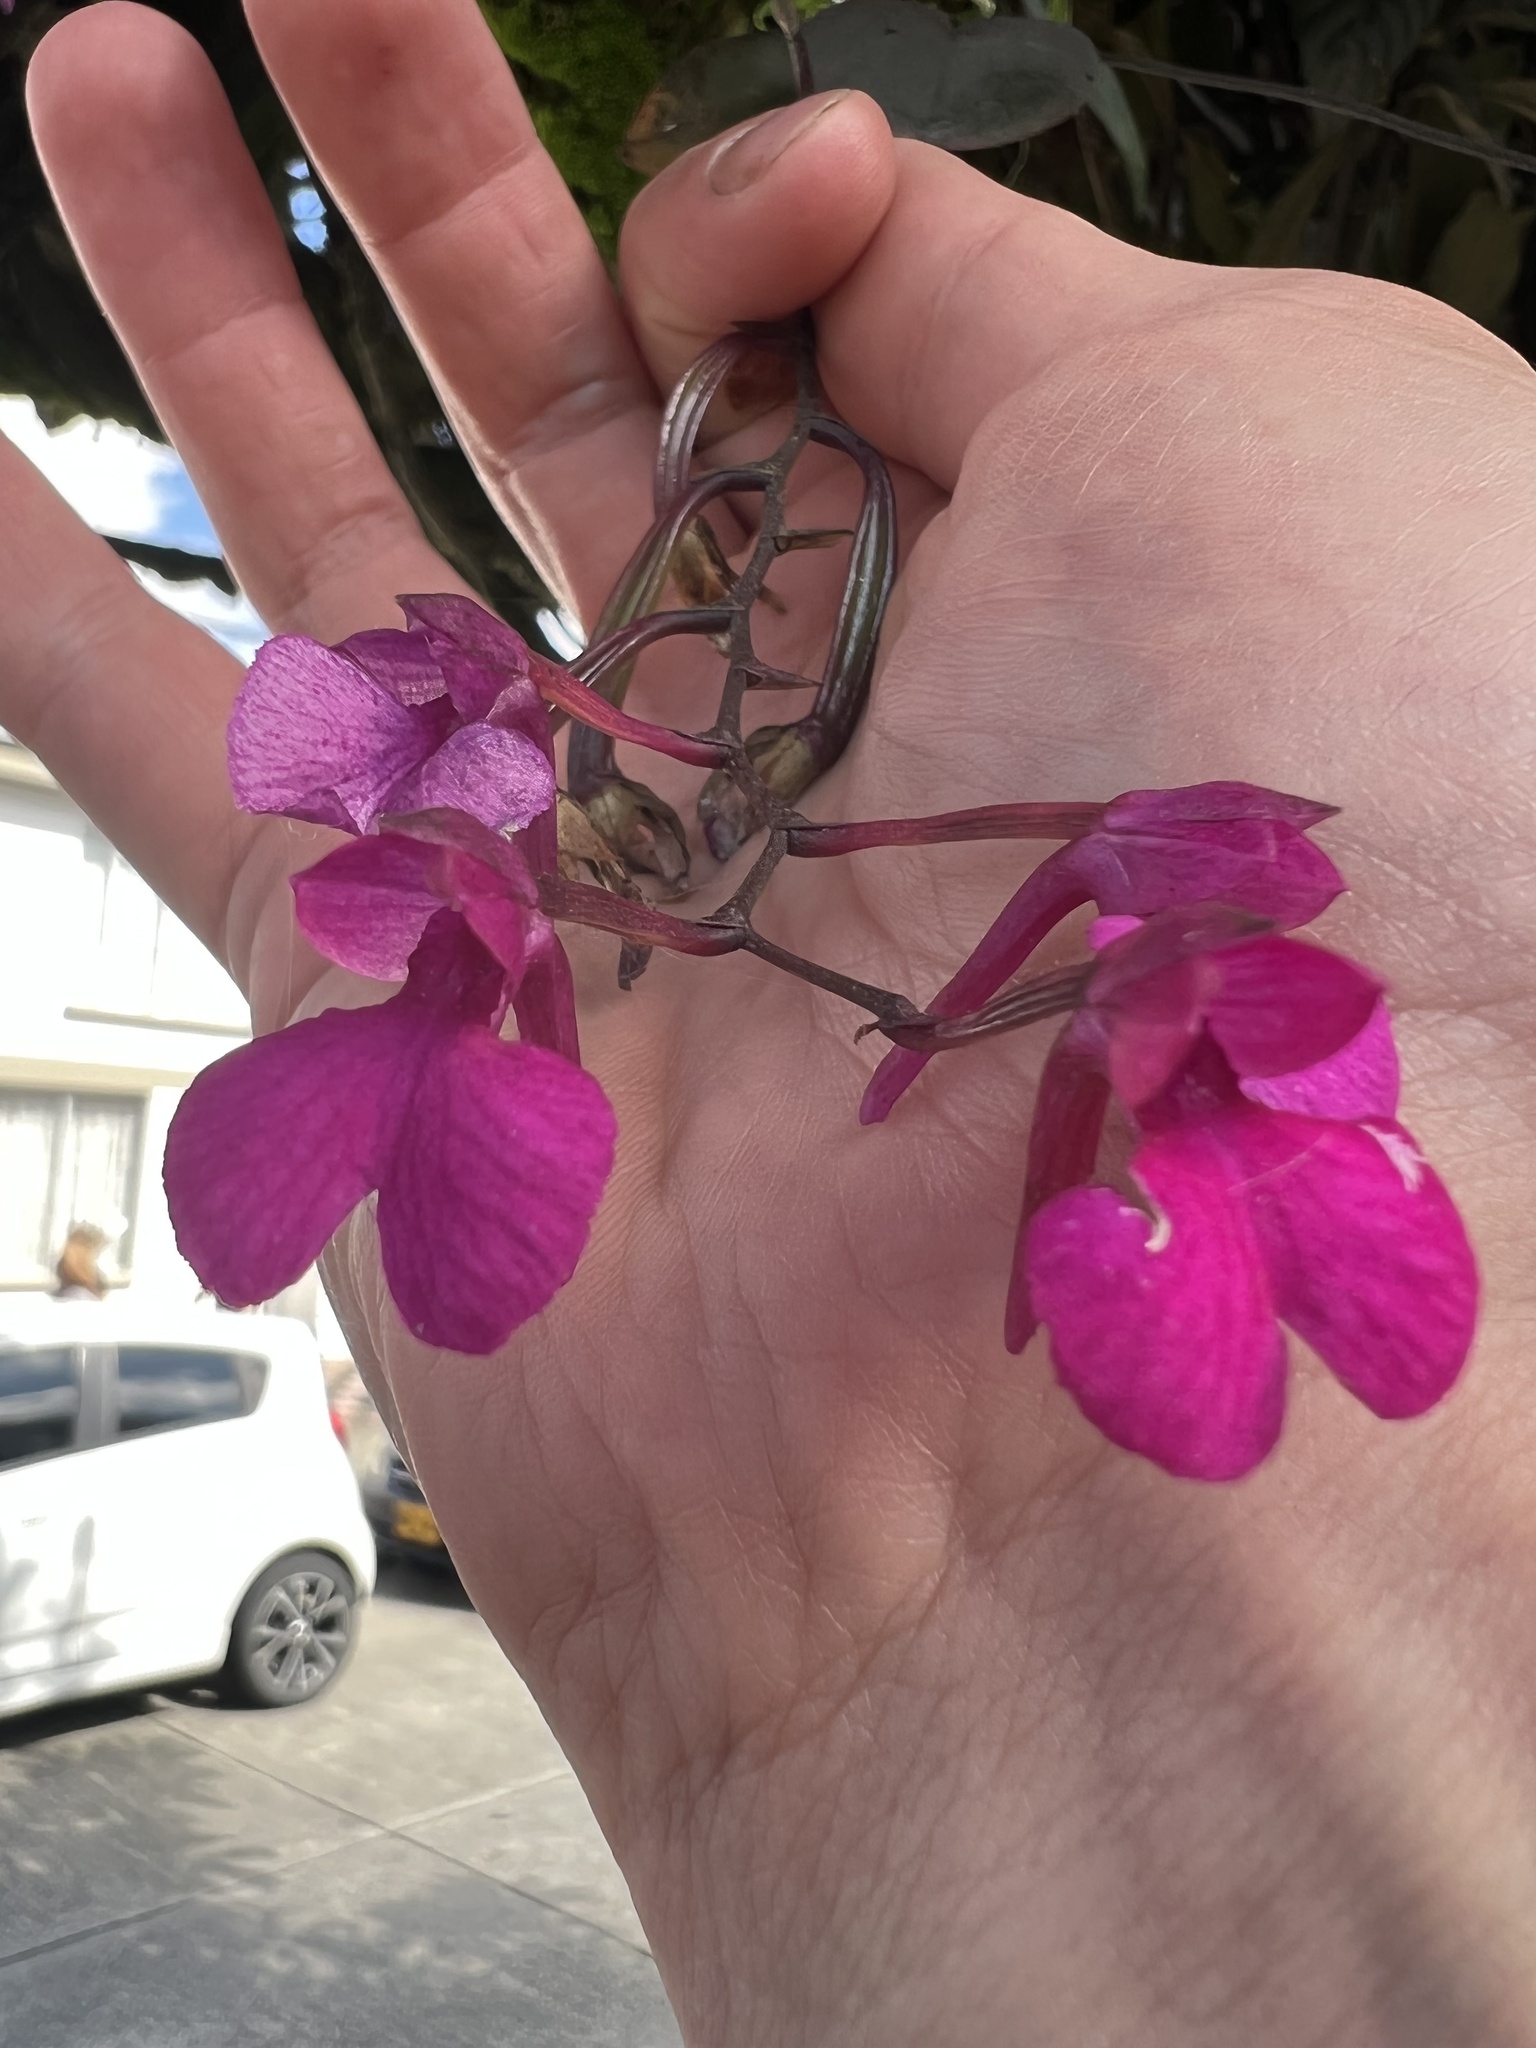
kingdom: Plantae
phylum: Tracheophyta
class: Liliopsida
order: Asparagales
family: Orchidaceae
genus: Comparettia
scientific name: Comparettia falcata
